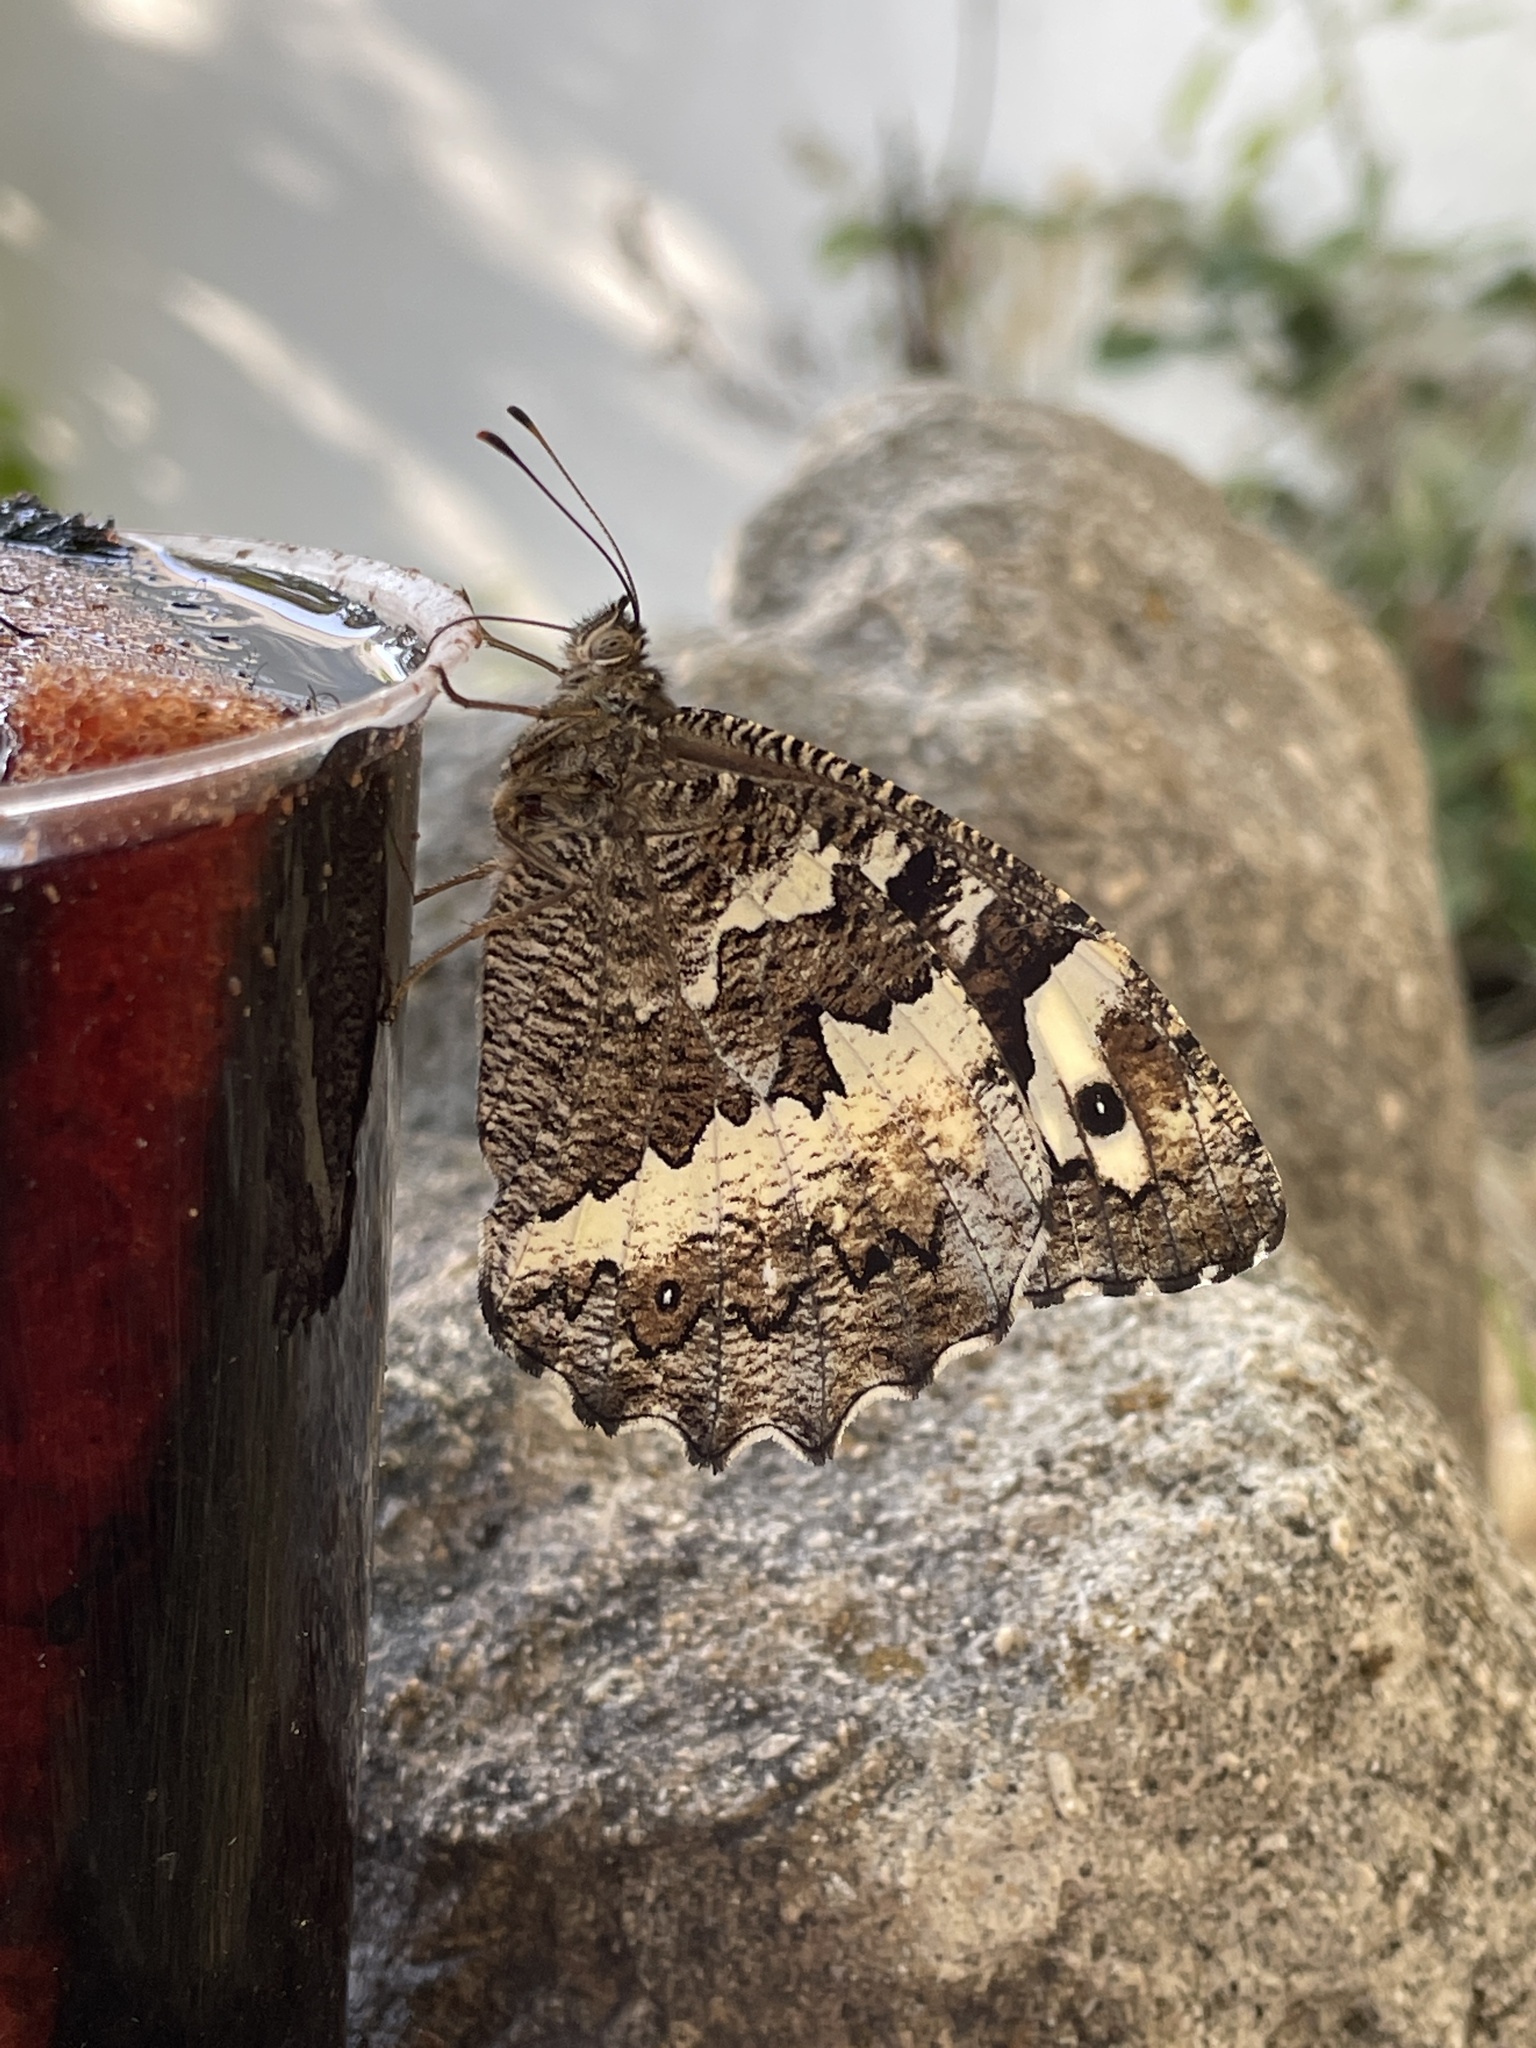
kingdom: Animalia
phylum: Arthropoda
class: Insecta
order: Lepidoptera
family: Lycaenidae
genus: Loweia
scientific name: Loweia tityrus
